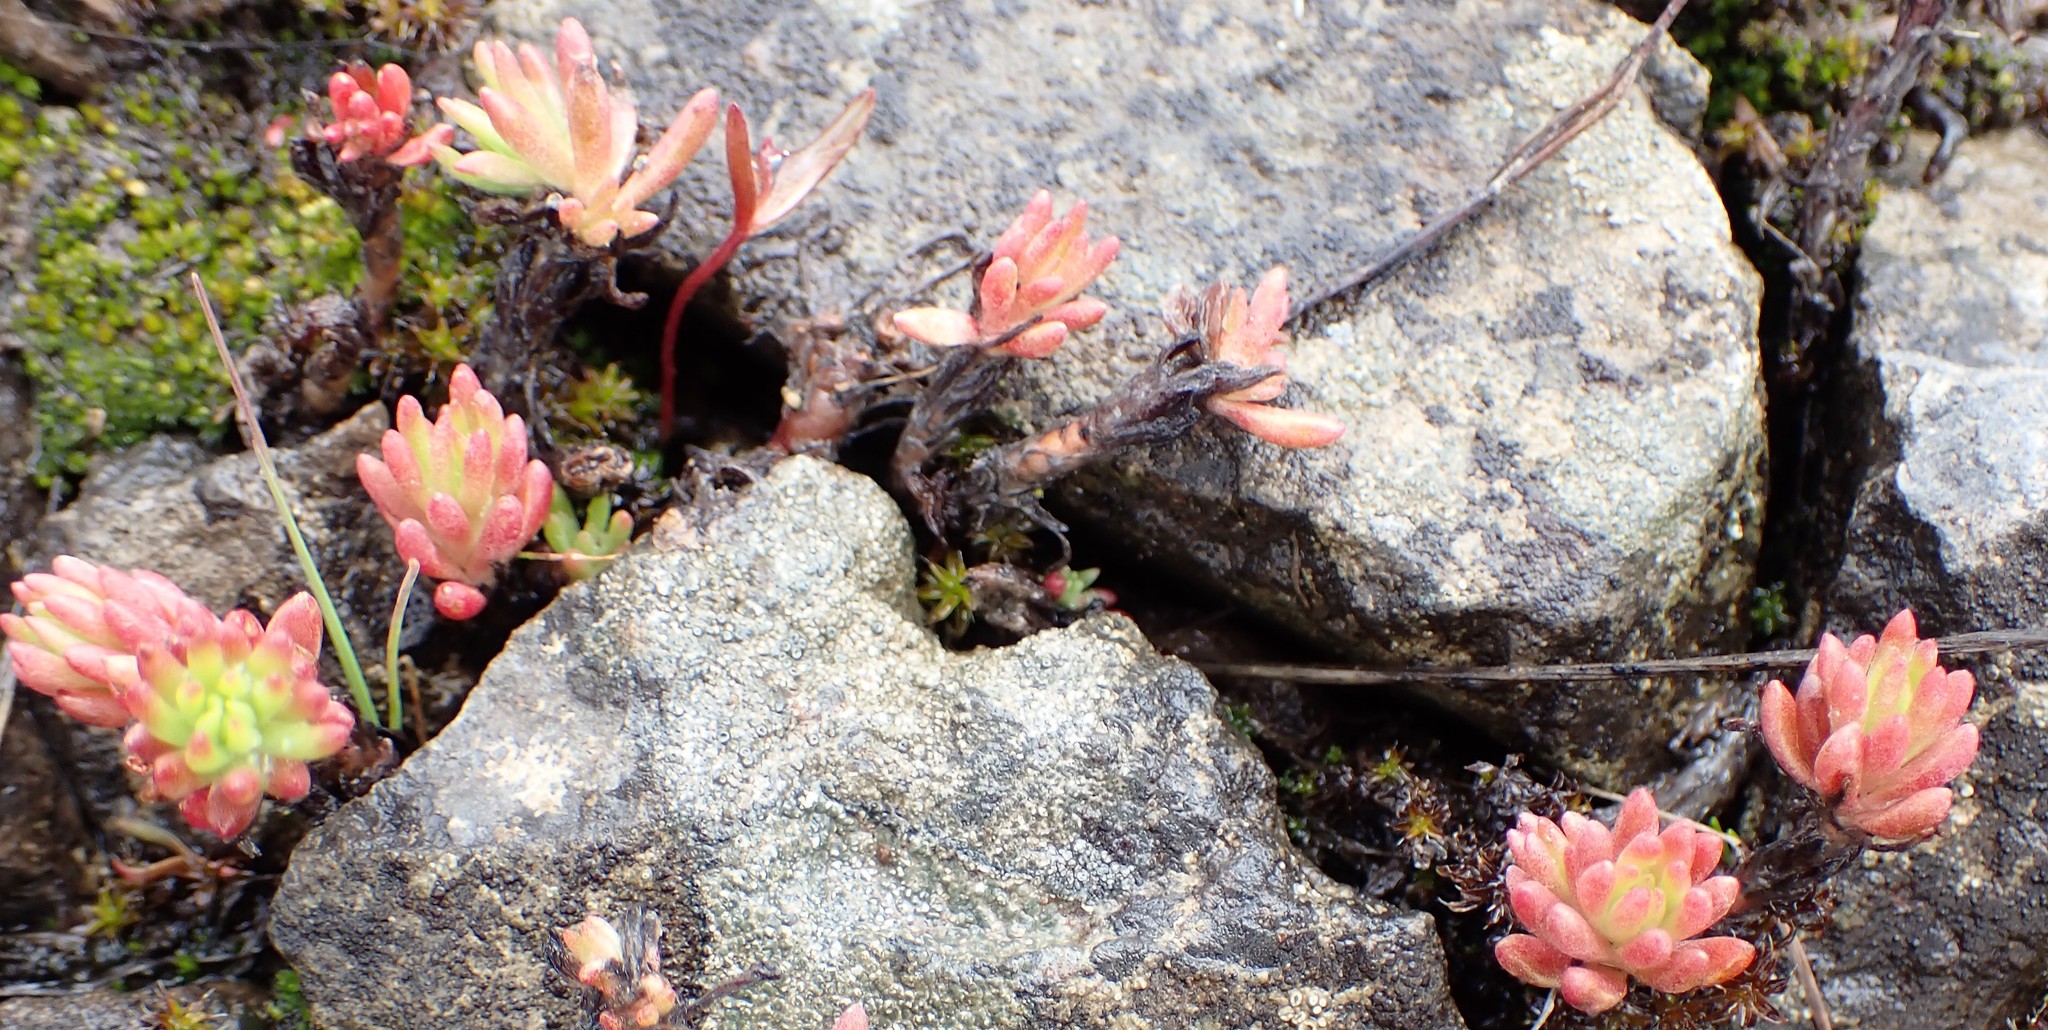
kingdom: Plantae
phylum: Tracheophyta
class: Magnoliopsida
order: Saxifragales
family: Crassulaceae
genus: Sedum
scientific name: Sedum stenopetalum
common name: Narrow-petaled stonecrop
